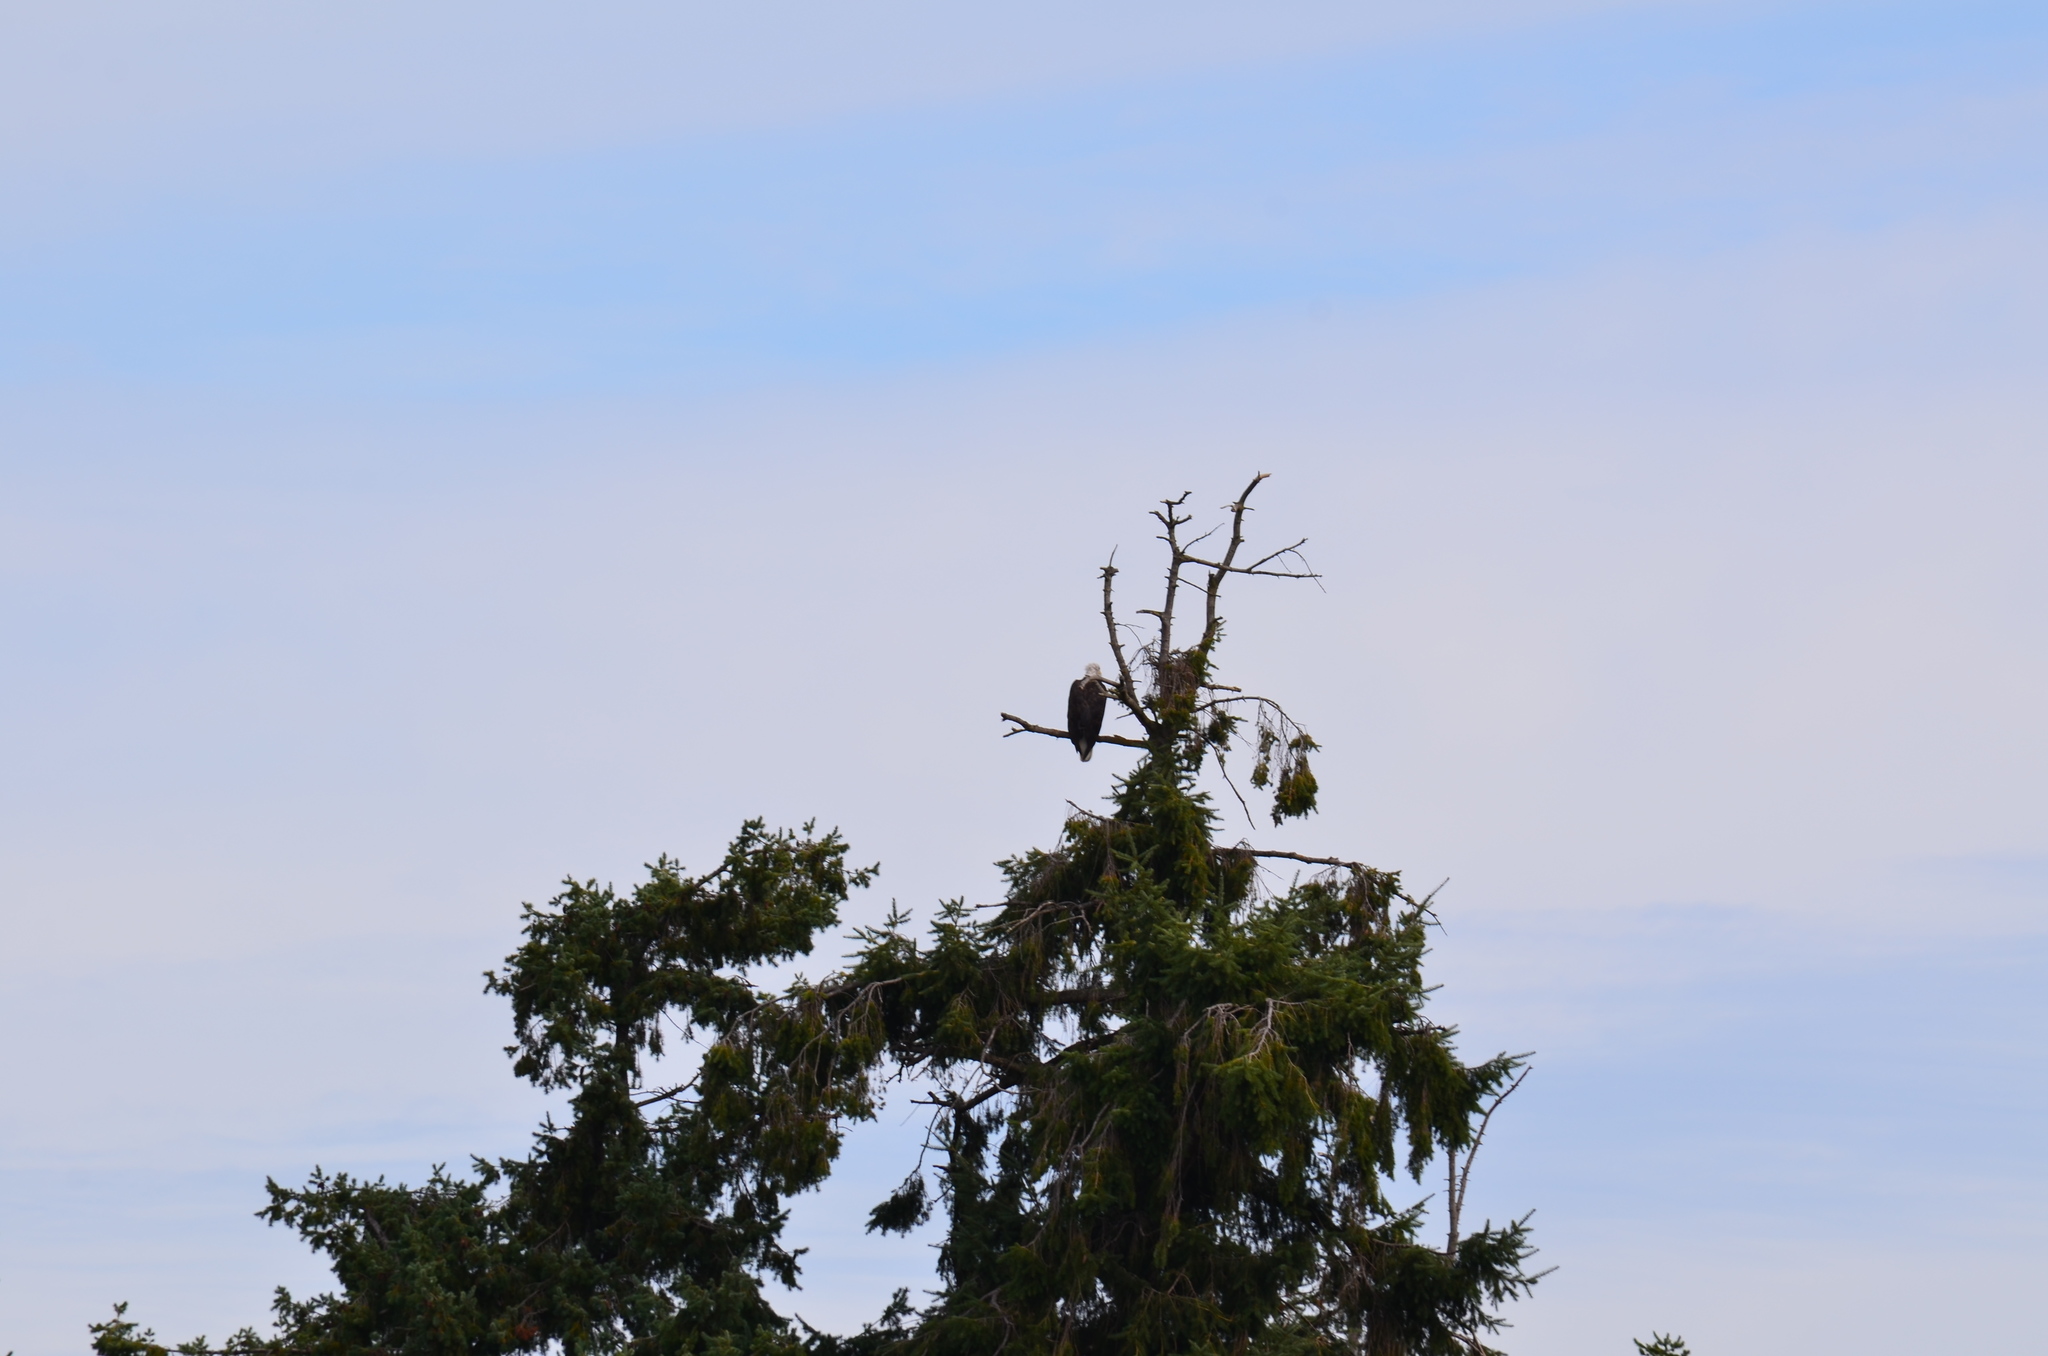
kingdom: Animalia
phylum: Chordata
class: Aves
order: Accipitriformes
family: Accipitridae
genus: Haliaeetus
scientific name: Haliaeetus leucocephalus
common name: Bald eagle
